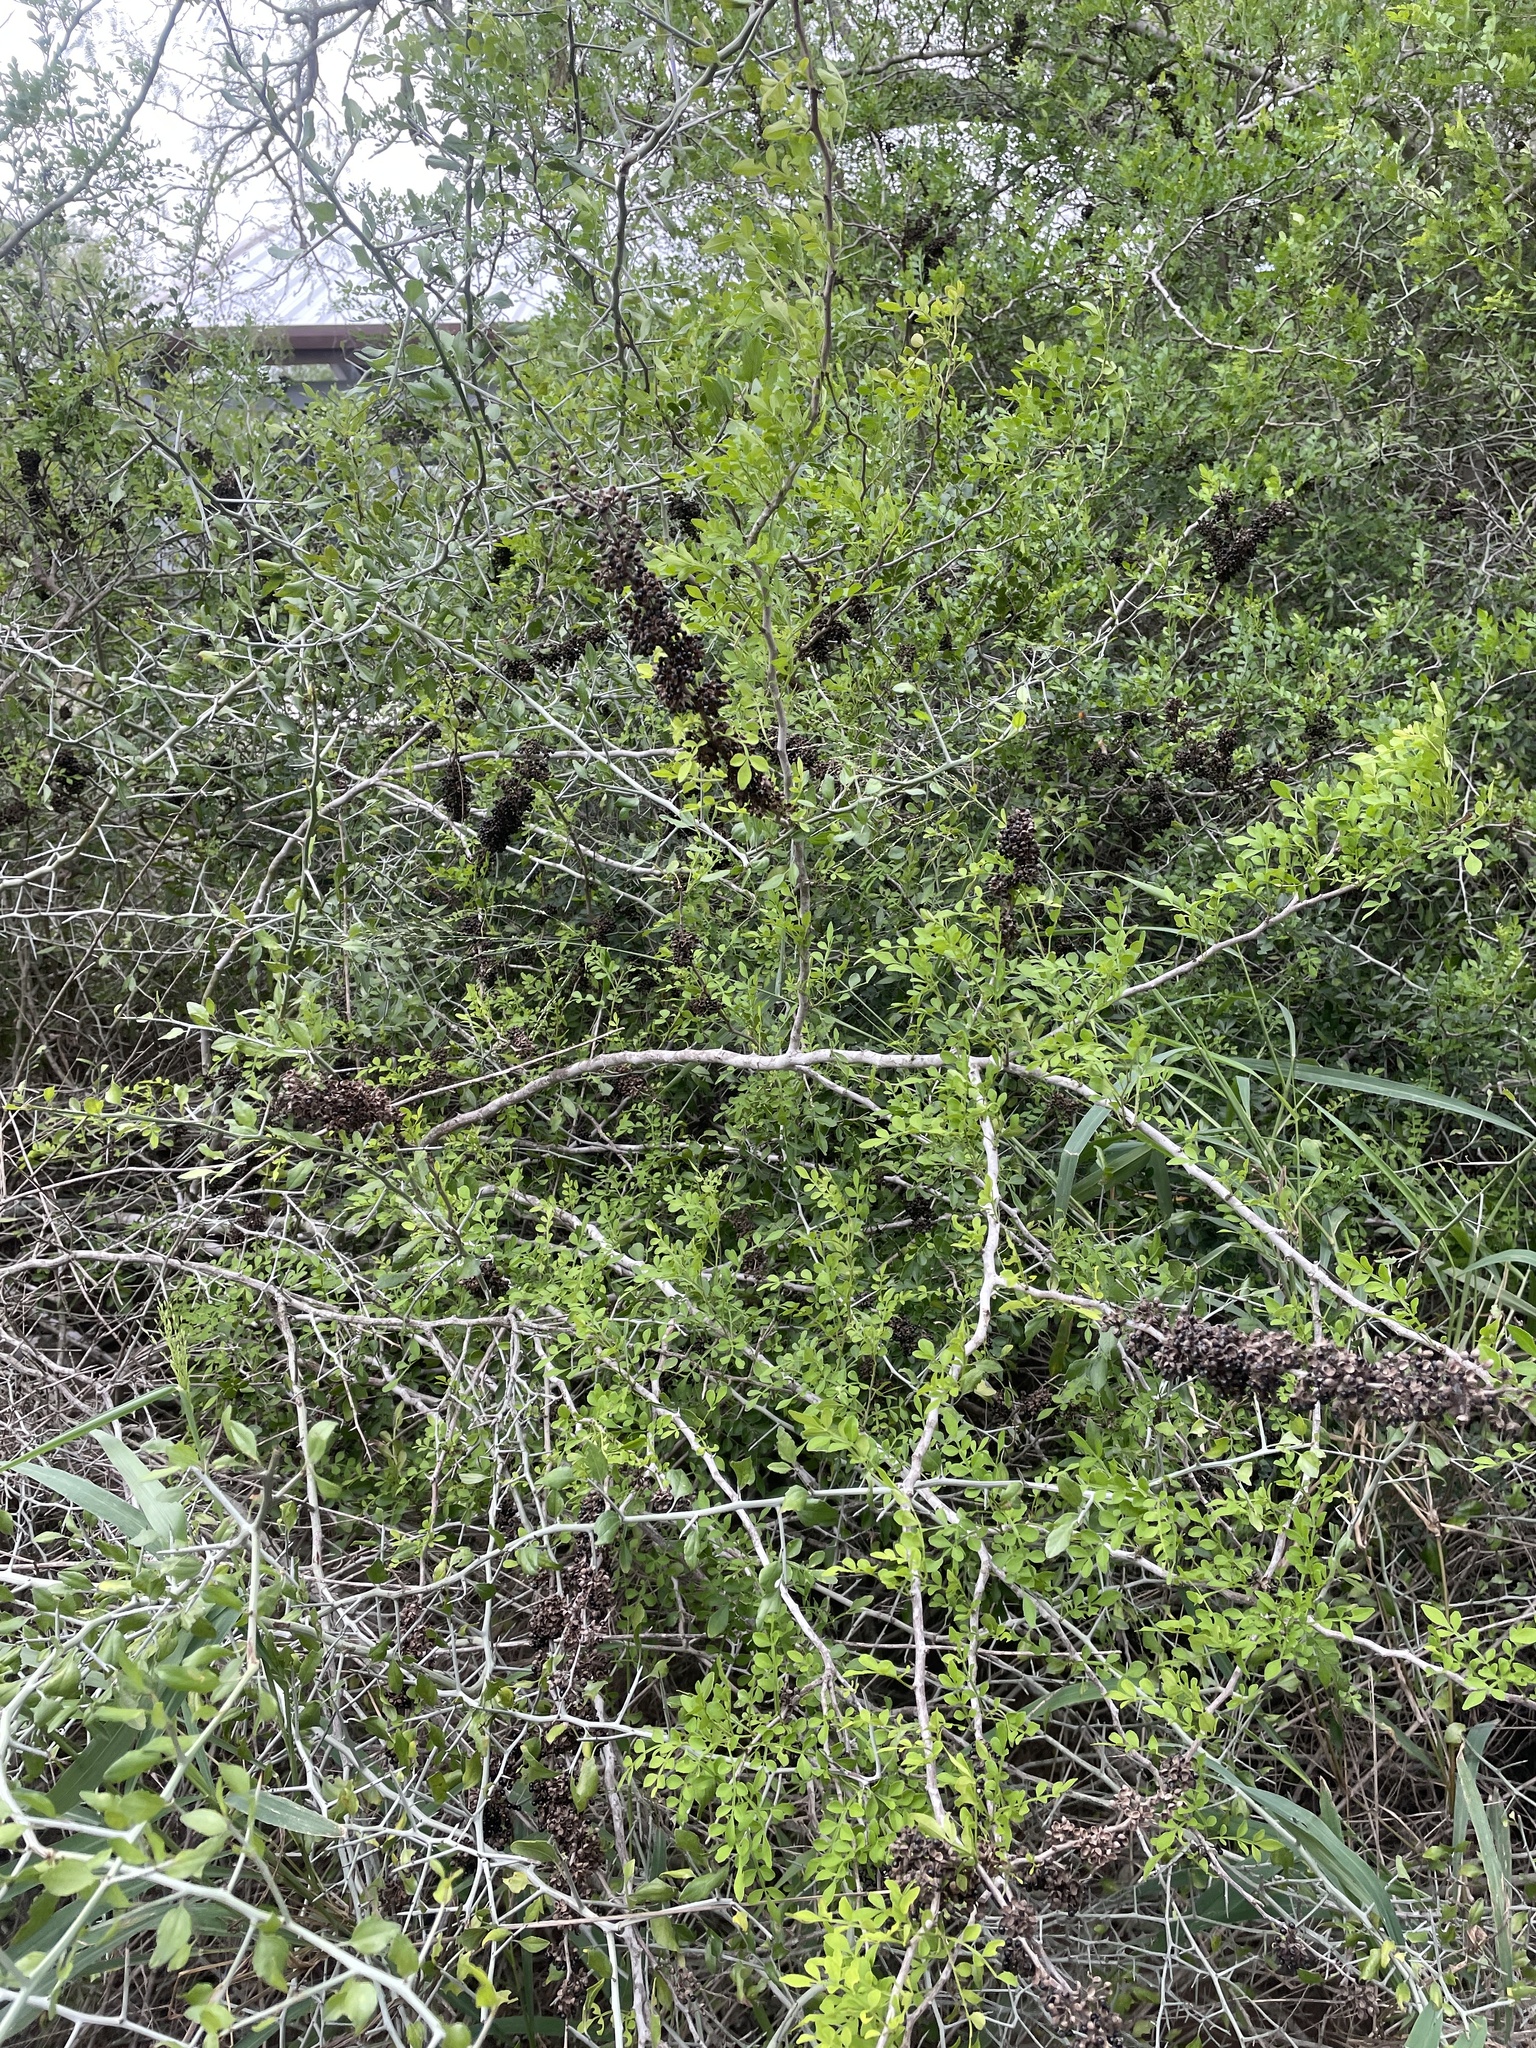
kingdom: Plantae
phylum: Tracheophyta
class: Magnoliopsida
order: Sapindales
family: Rutaceae
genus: Zanthoxylum
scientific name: Zanthoxylum fagara
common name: Lime prickly-ash
